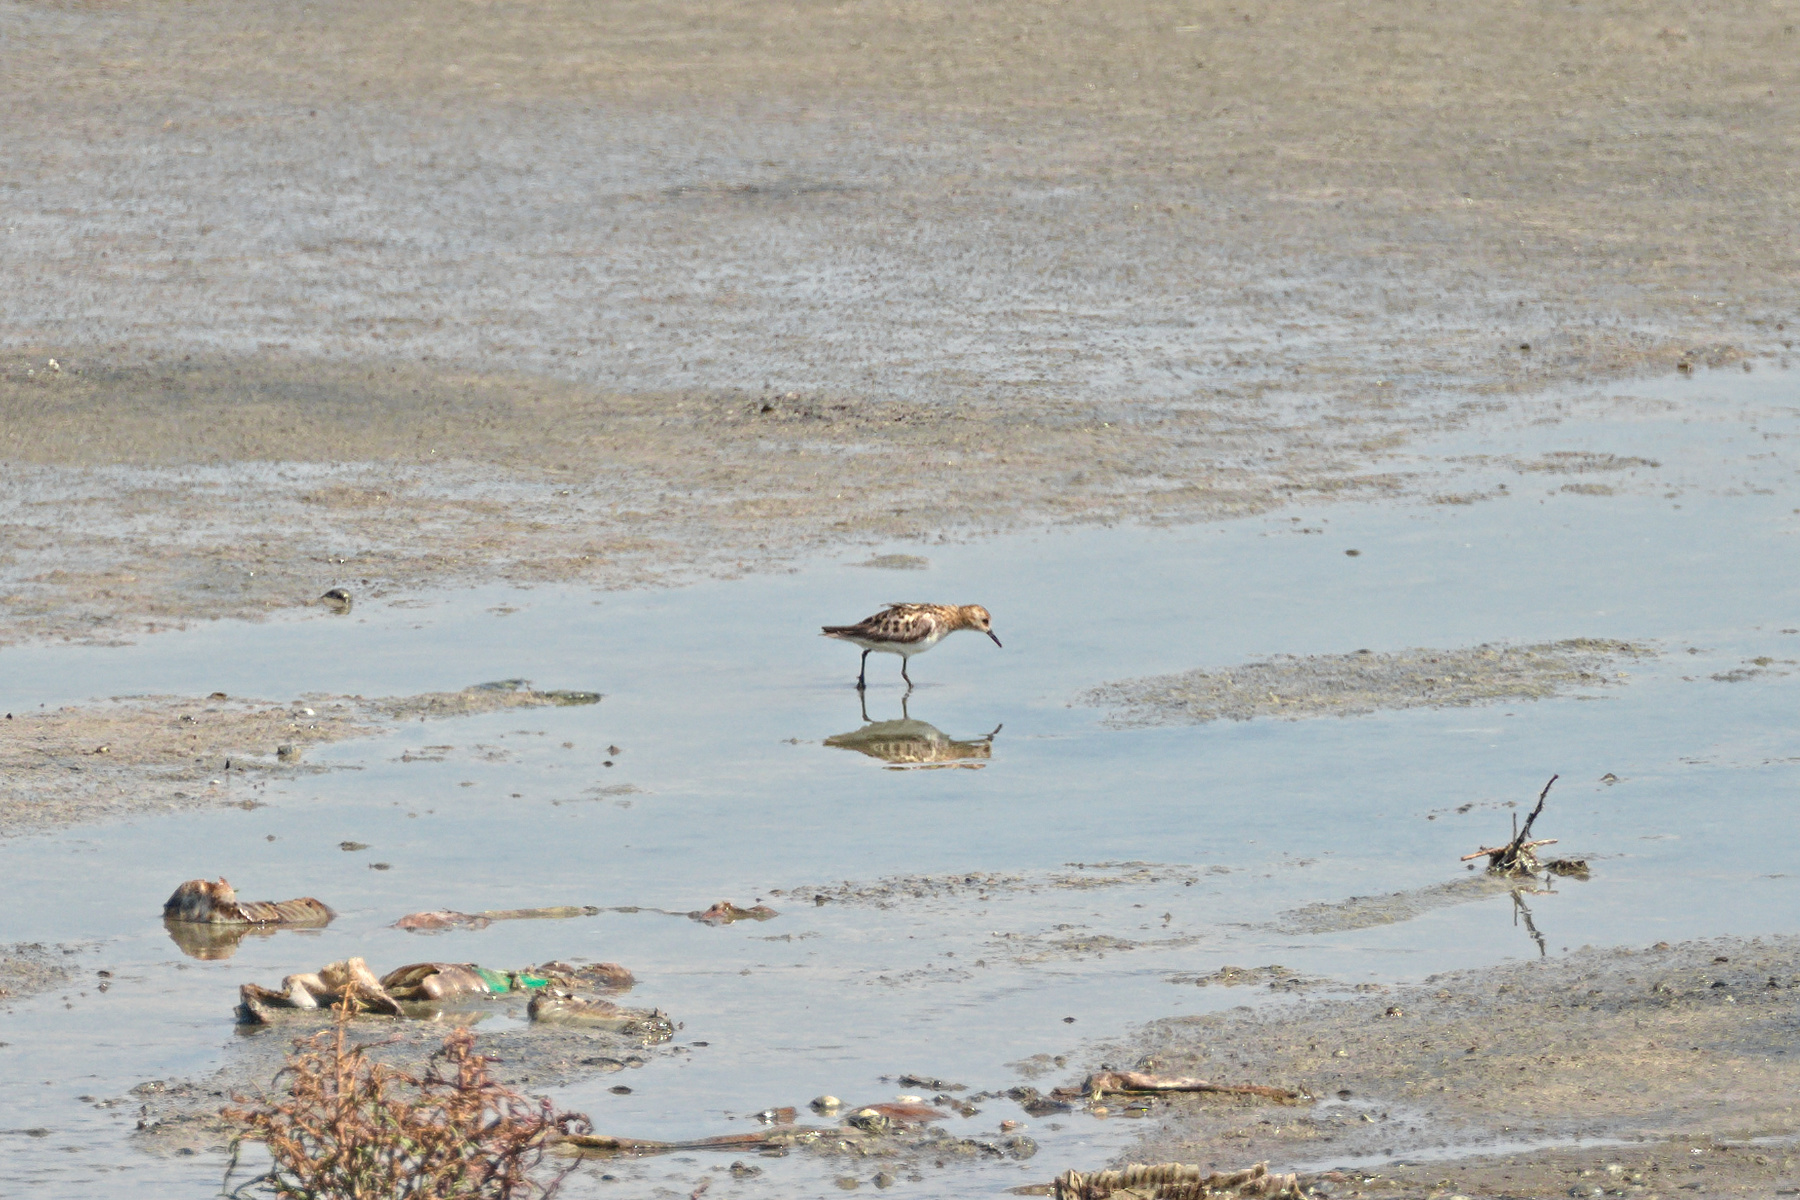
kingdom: Animalia
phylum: Chordata
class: Aves
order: Charadriiformes
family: Scolopacidae
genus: Calidris
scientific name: Calidris minuta
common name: Little stint
